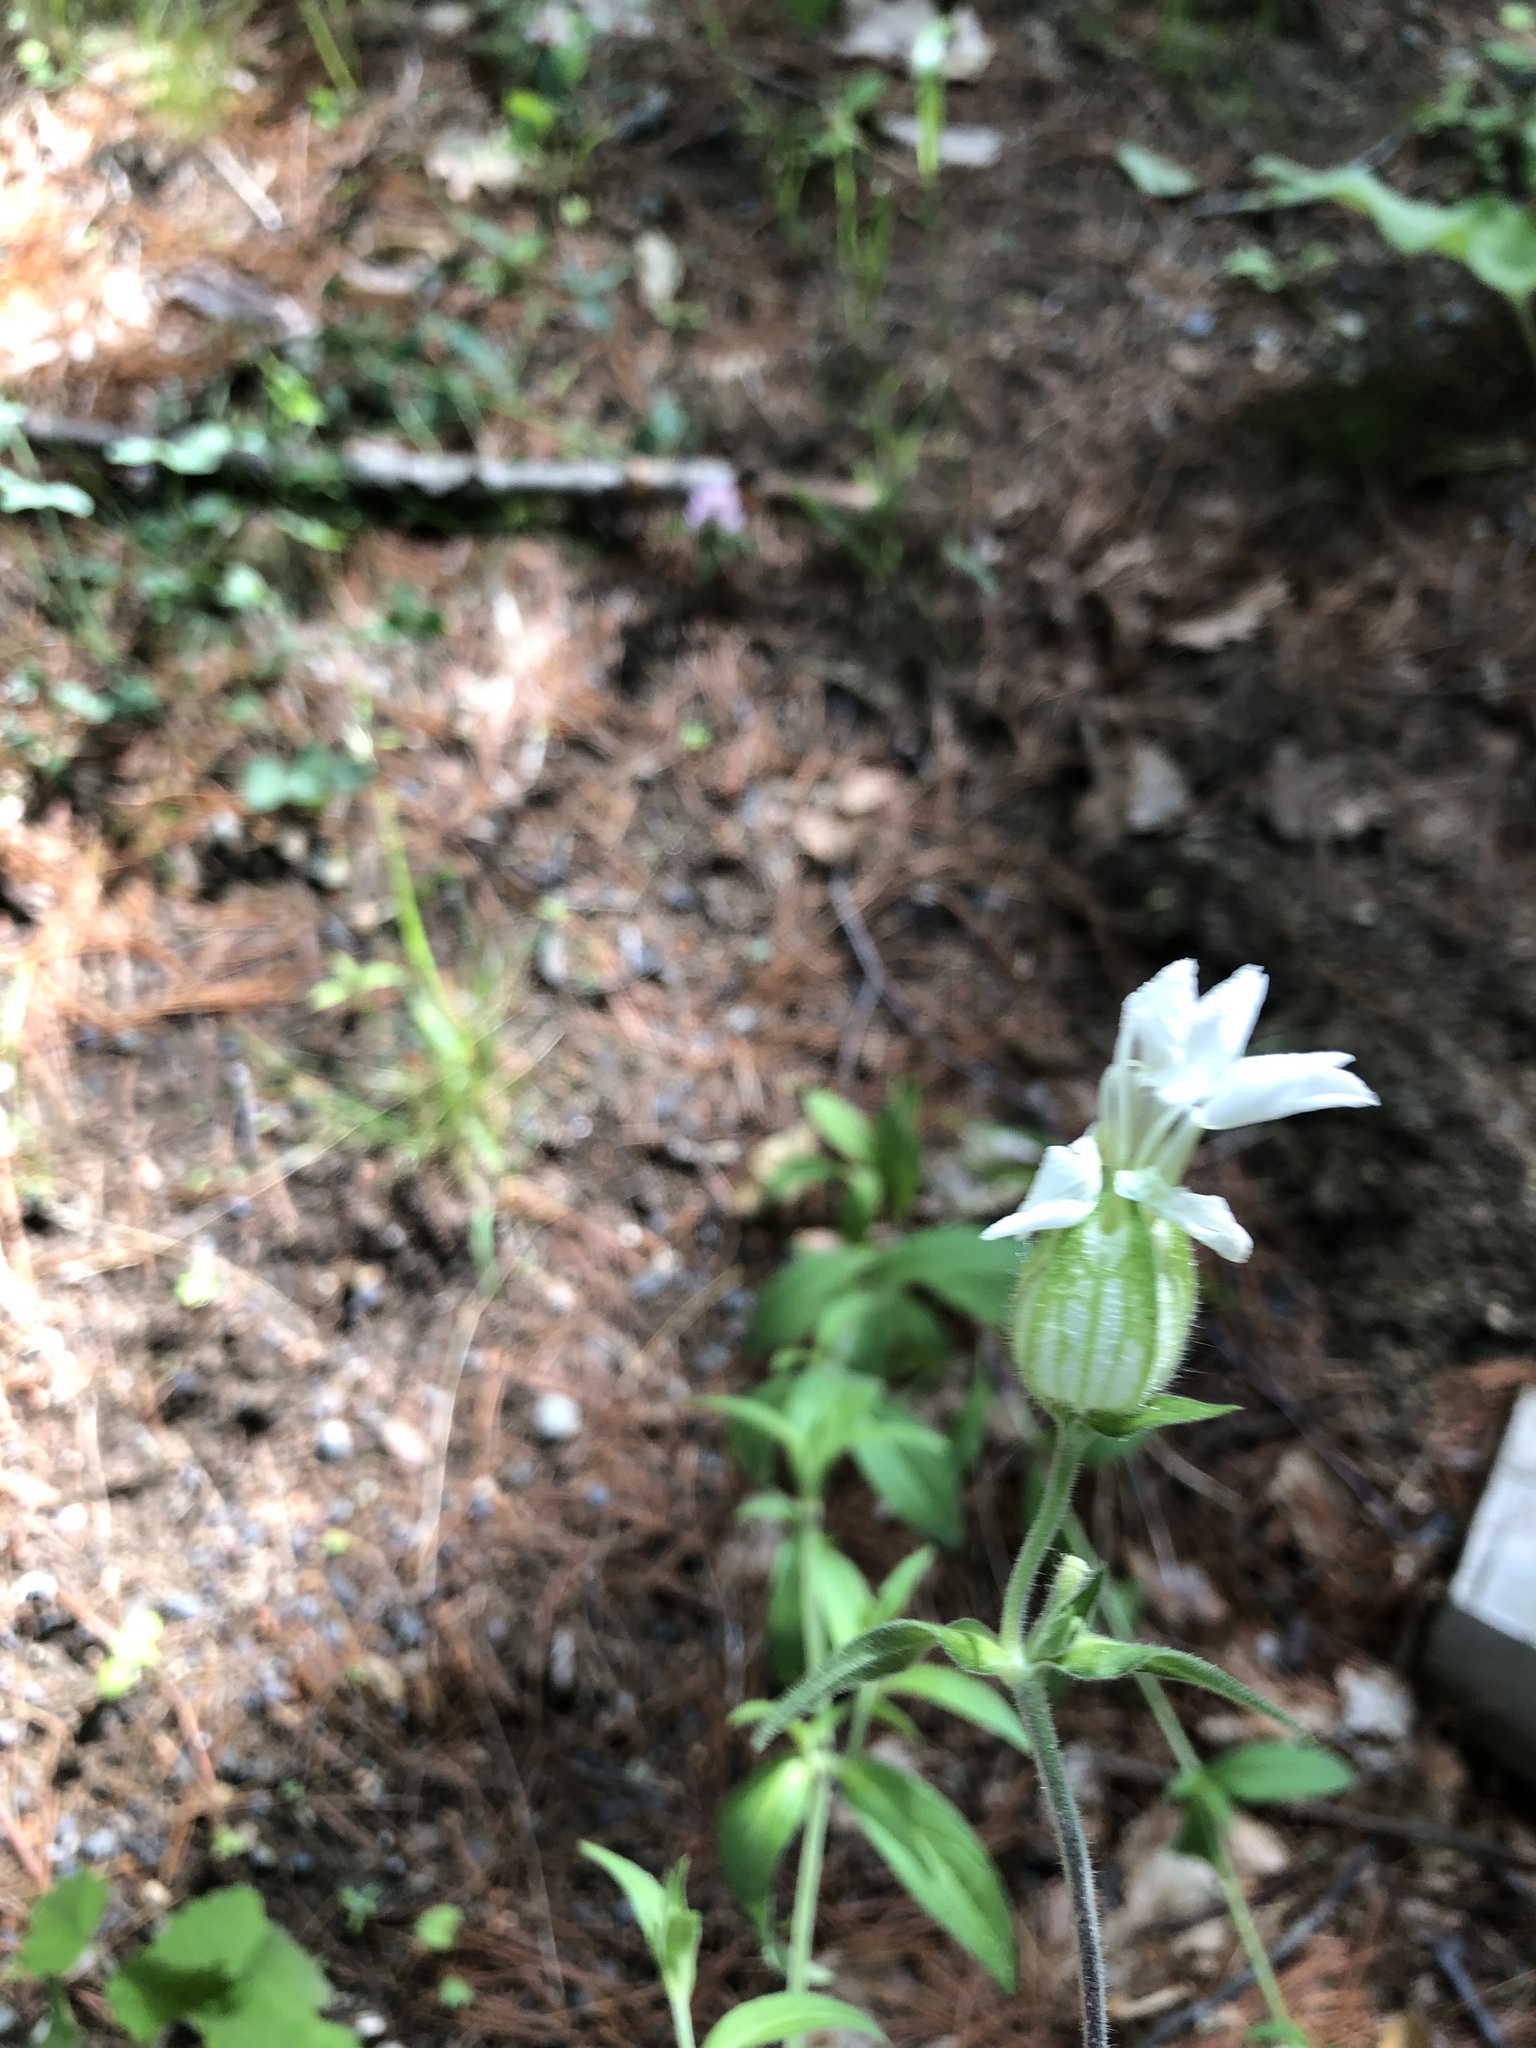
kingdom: Plantae
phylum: Tracheophyta
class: Magnoliopsida
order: Caryophyllales
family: Caryophyllaceae
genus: Silene
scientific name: Silene latifolia
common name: White campion
